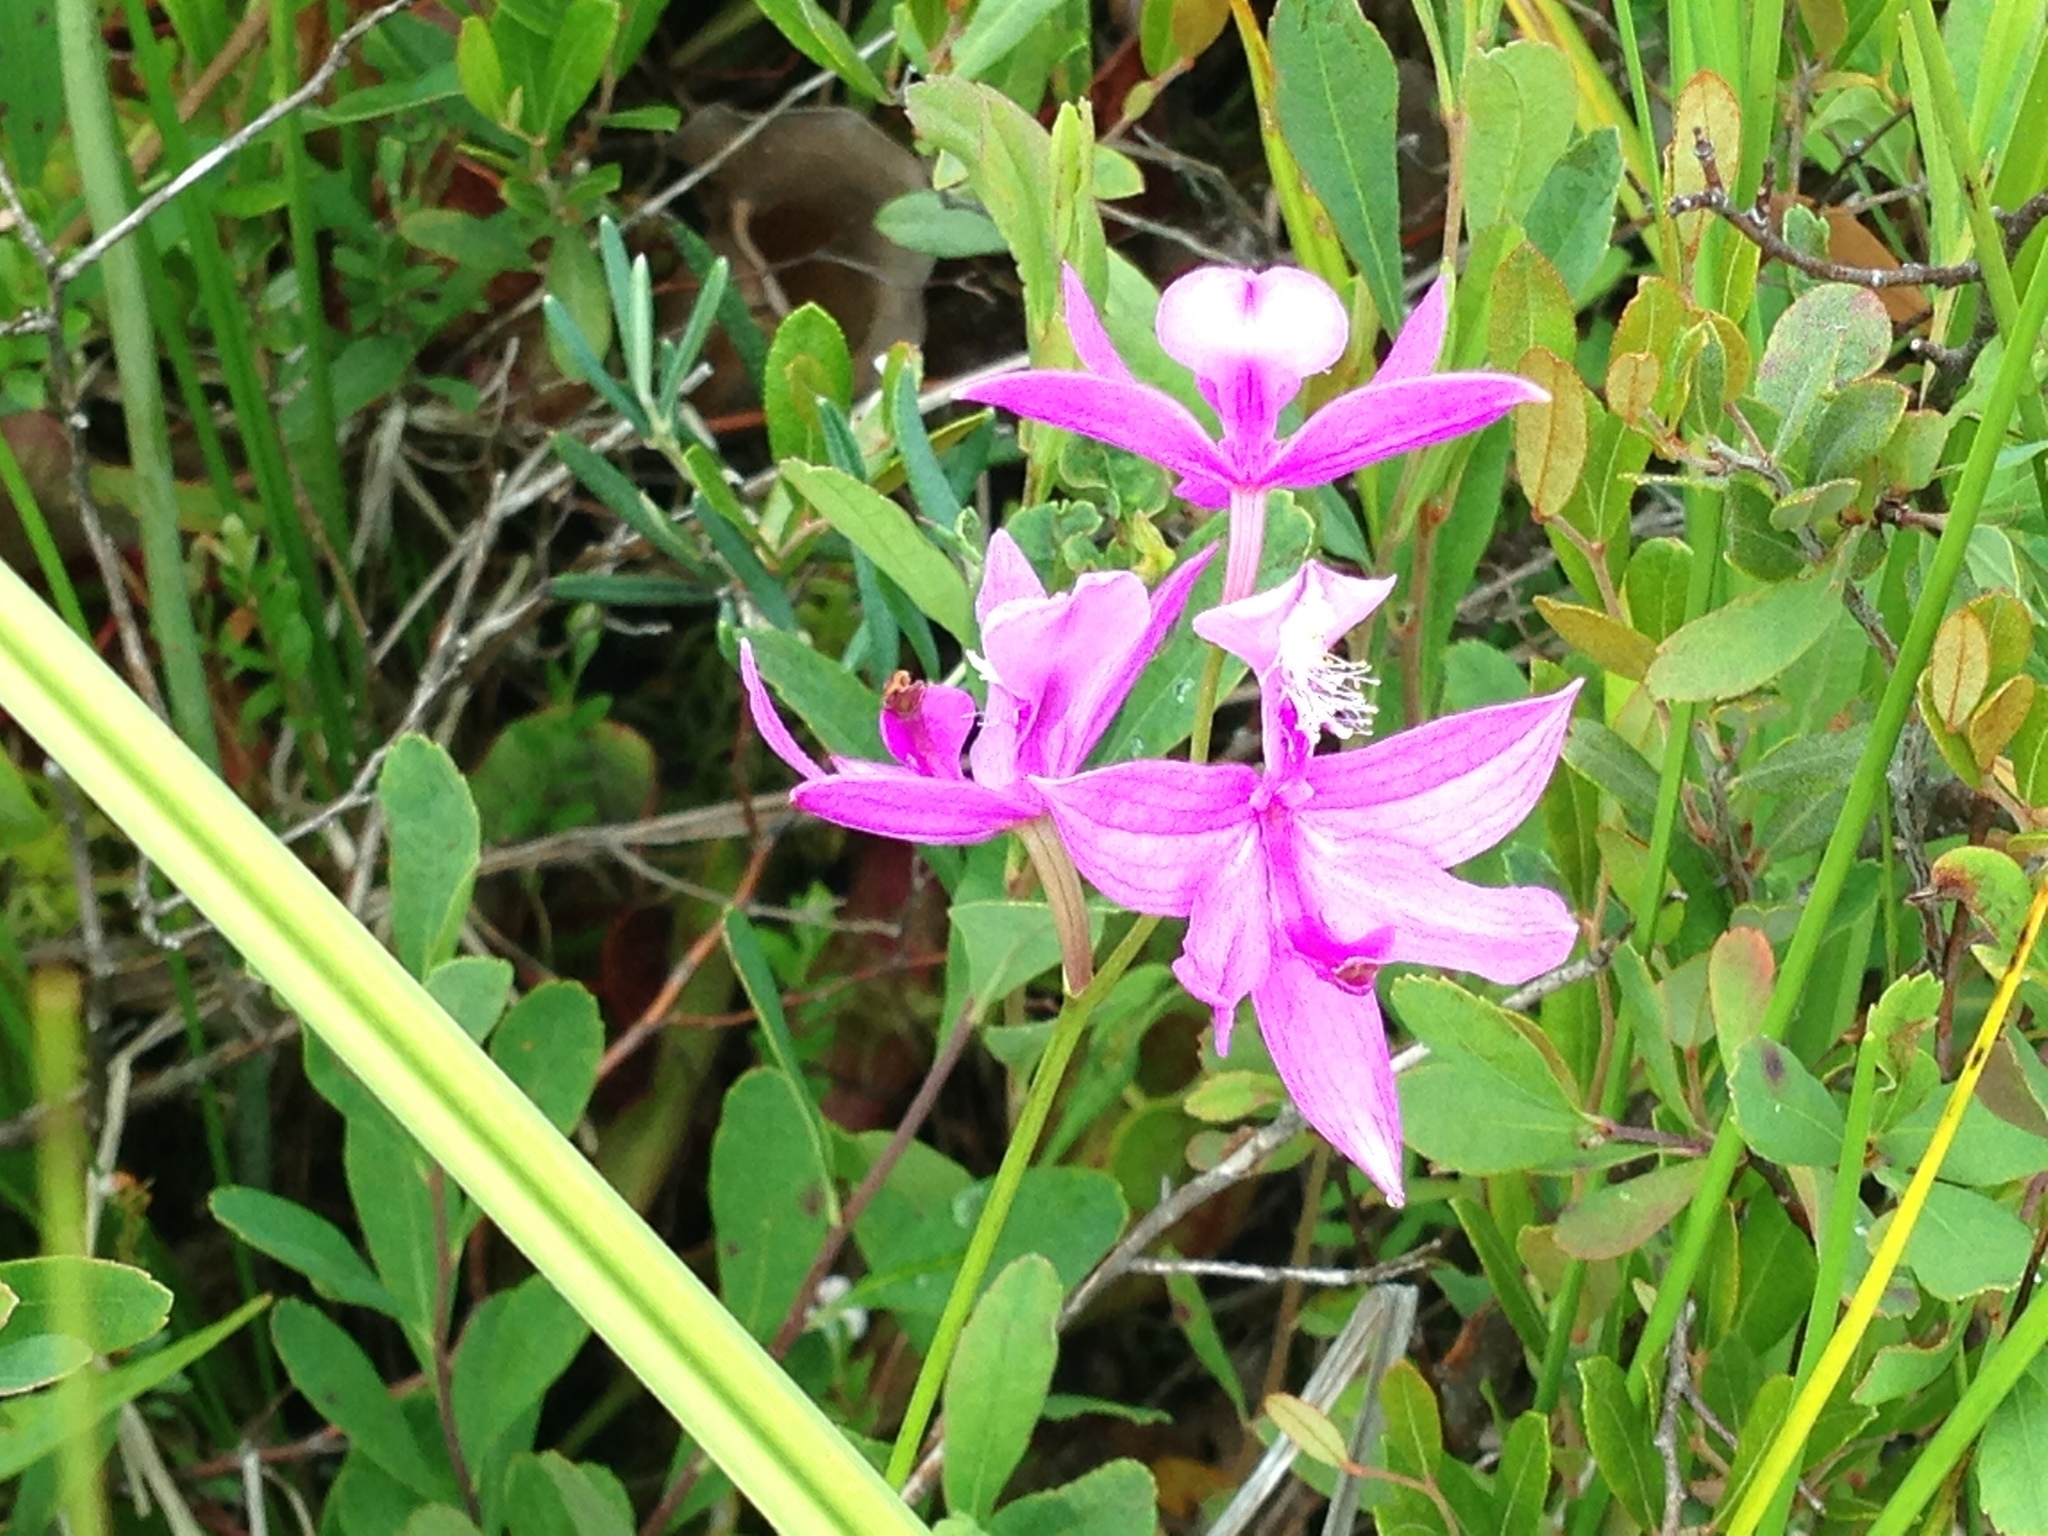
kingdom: Plantae
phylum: Tracheophyta
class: Liliopsida
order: Asparagales
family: Orchidaceae
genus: Calopogon
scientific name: Calopogon tuberosus
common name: Grass-pink
